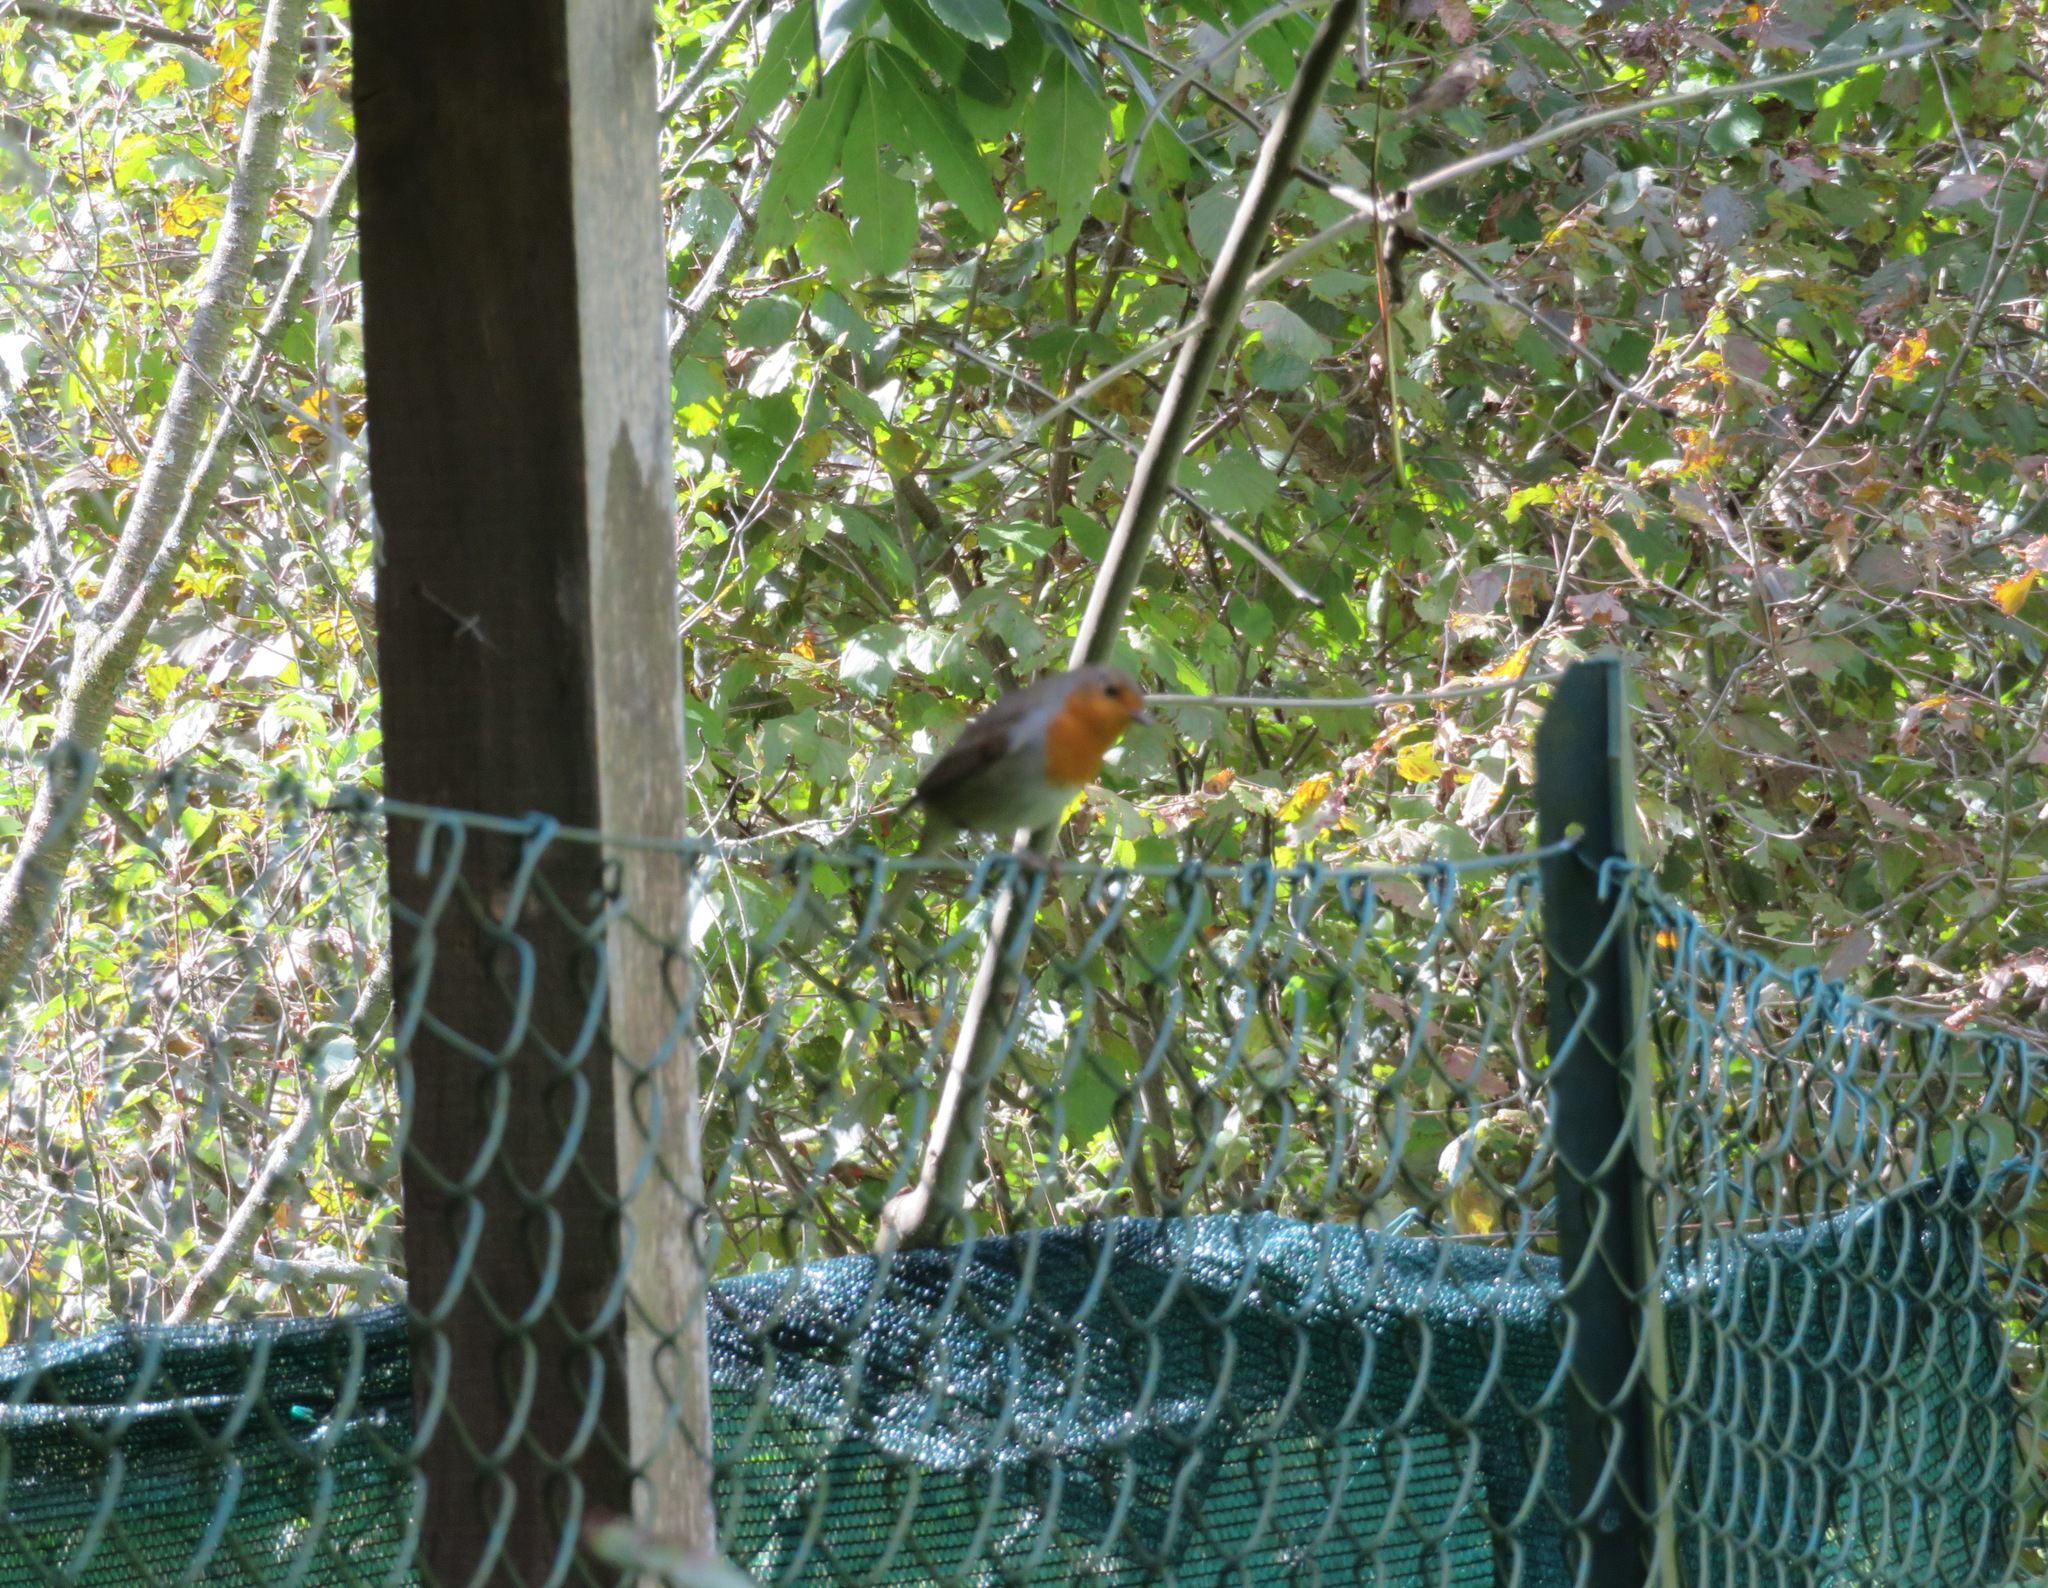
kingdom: Animalia
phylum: Chordata
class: Aves
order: Passeriformes
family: Muscicapidae
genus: Erithacus
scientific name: Erithacus rubecula
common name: European robin
